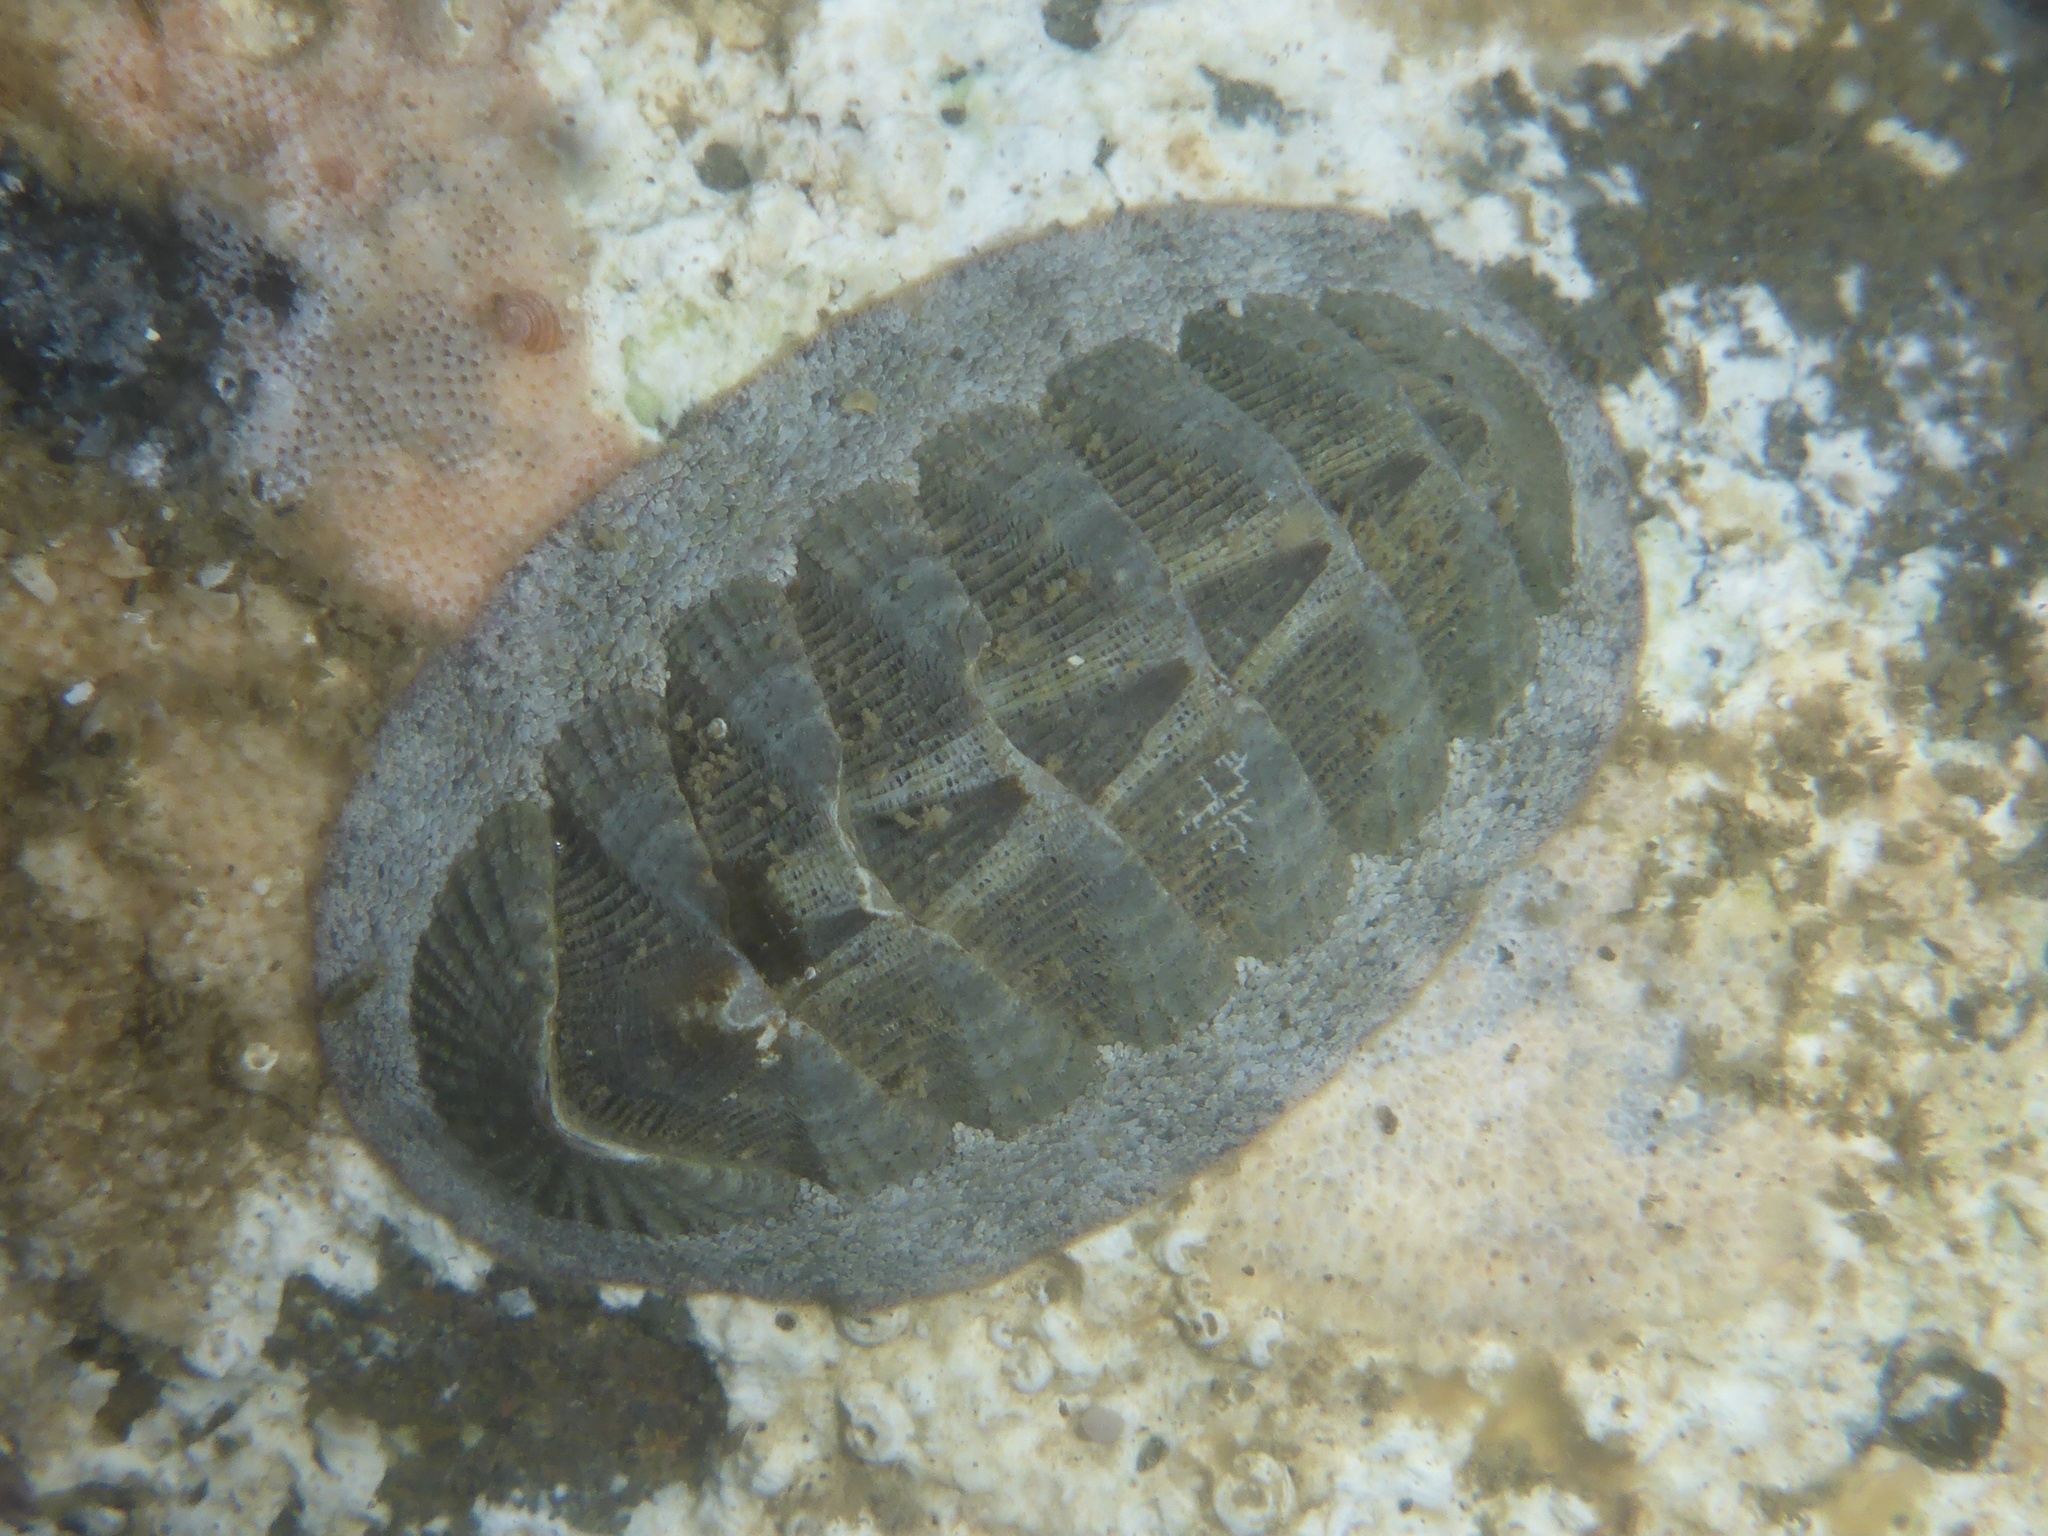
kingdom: Animalia
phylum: Mollusca
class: Polyplacophora
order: Chitonida
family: Ischnochitonidae
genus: Lepidozona
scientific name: Lepidozona cooperi
